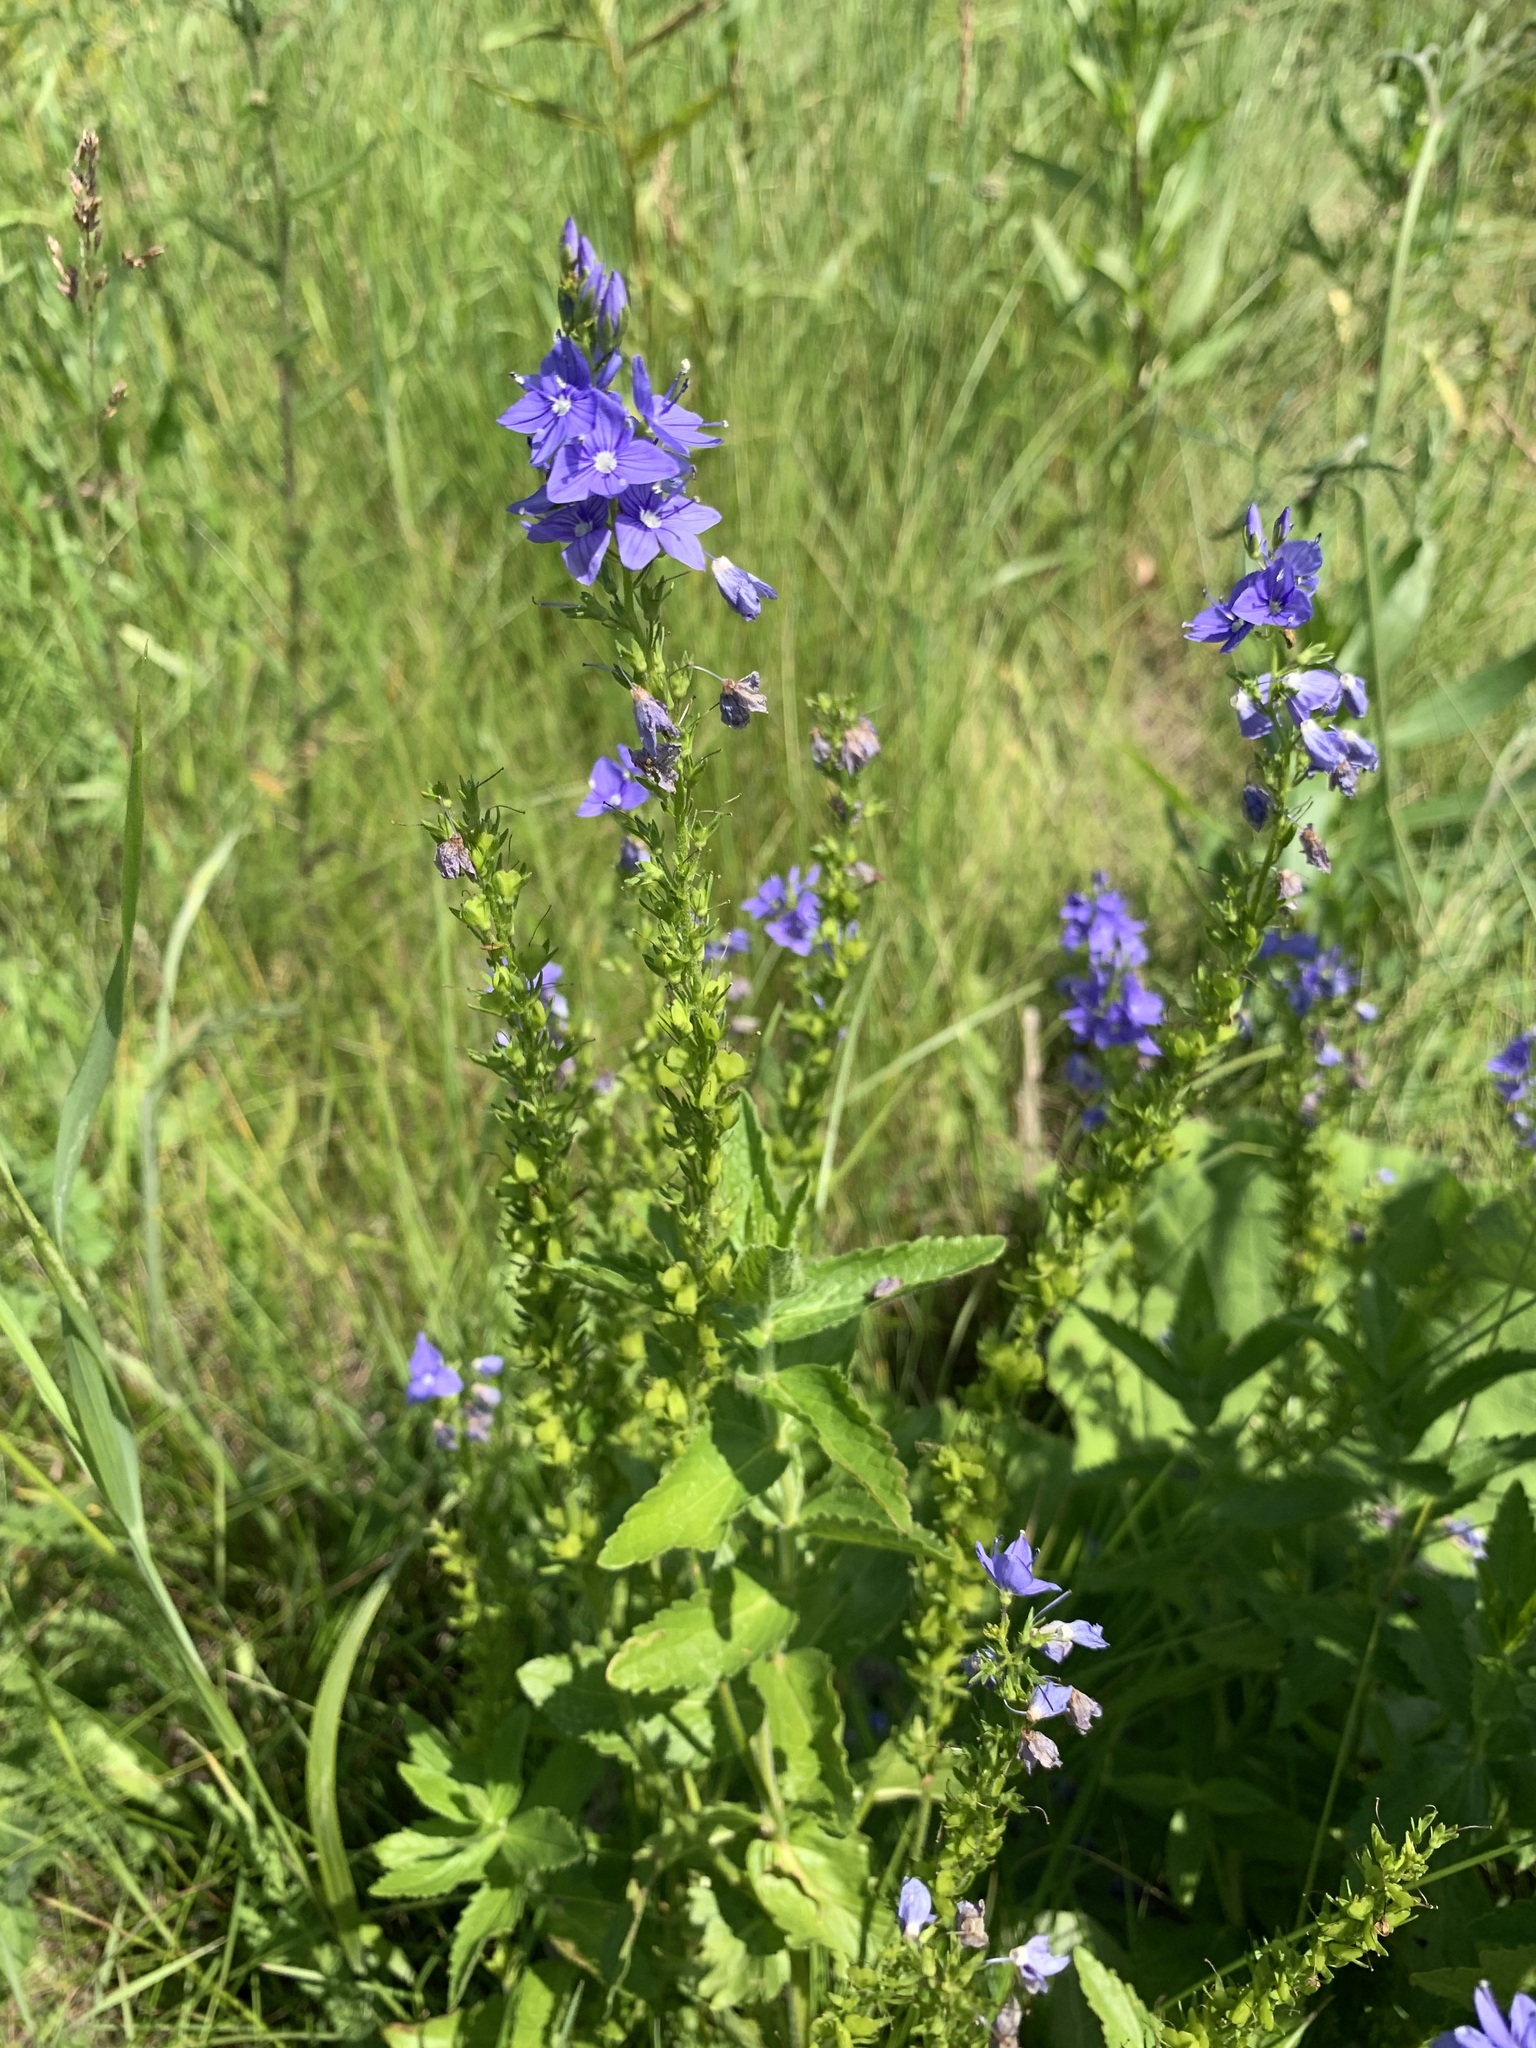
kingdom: Plantae
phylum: Tracheophyta
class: Magnoliopsida
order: Lamiales
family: Plantaginaceae
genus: Veronica
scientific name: Veronica teucrium
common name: Large speedwell
